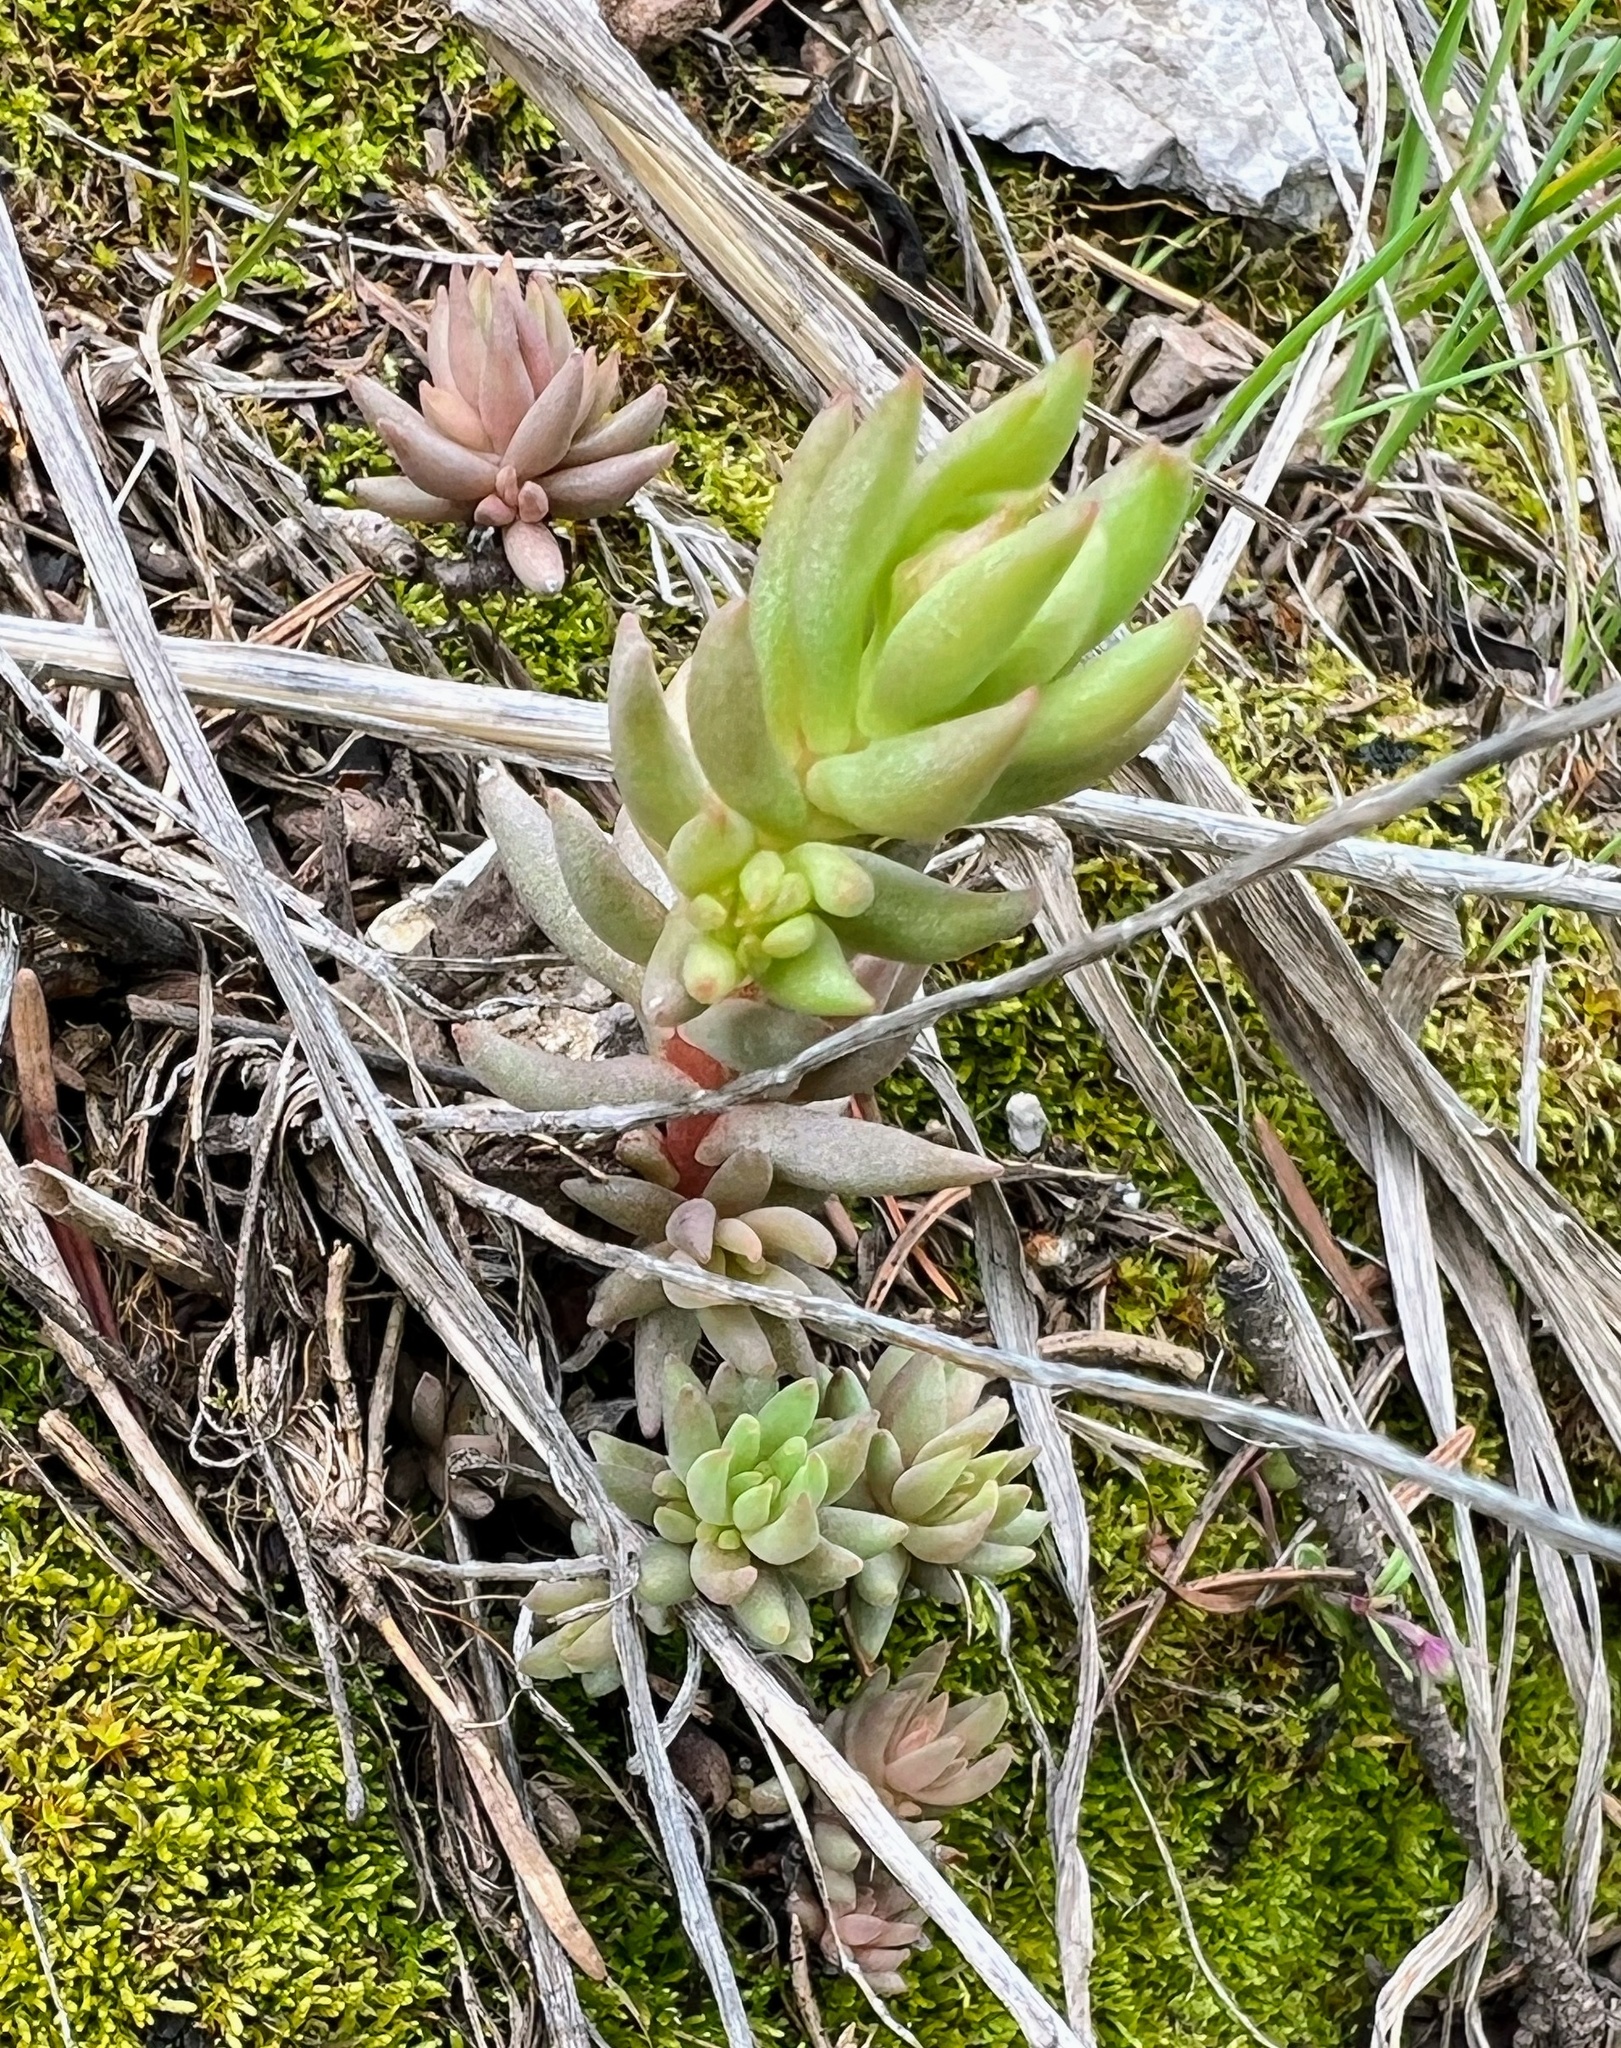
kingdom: Plantae
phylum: Tracheophyta
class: Magnoliopsida
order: Saxifragales
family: Crassulaceae
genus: Sedum
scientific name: Sedum lanceolatum
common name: Common stonecrop
